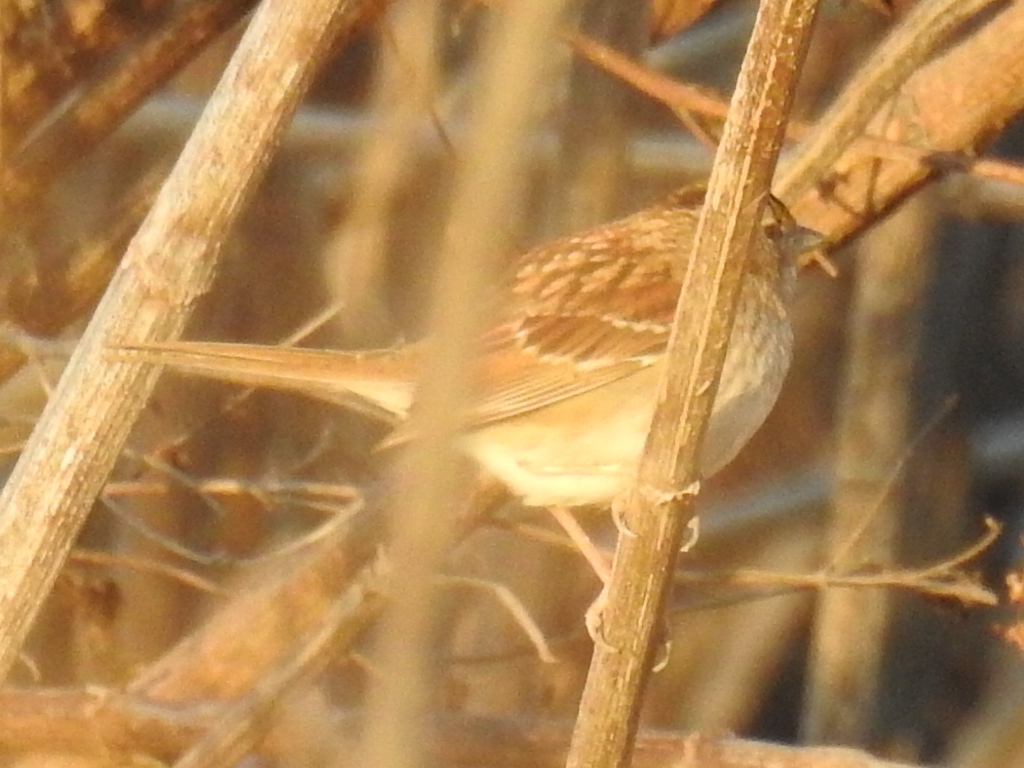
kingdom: Animalia
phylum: Chordata
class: Aves
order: Passeriformes
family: Passerellidae
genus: Zonotrichia
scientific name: Zonotrichia albicollis
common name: White-throated sparrow
